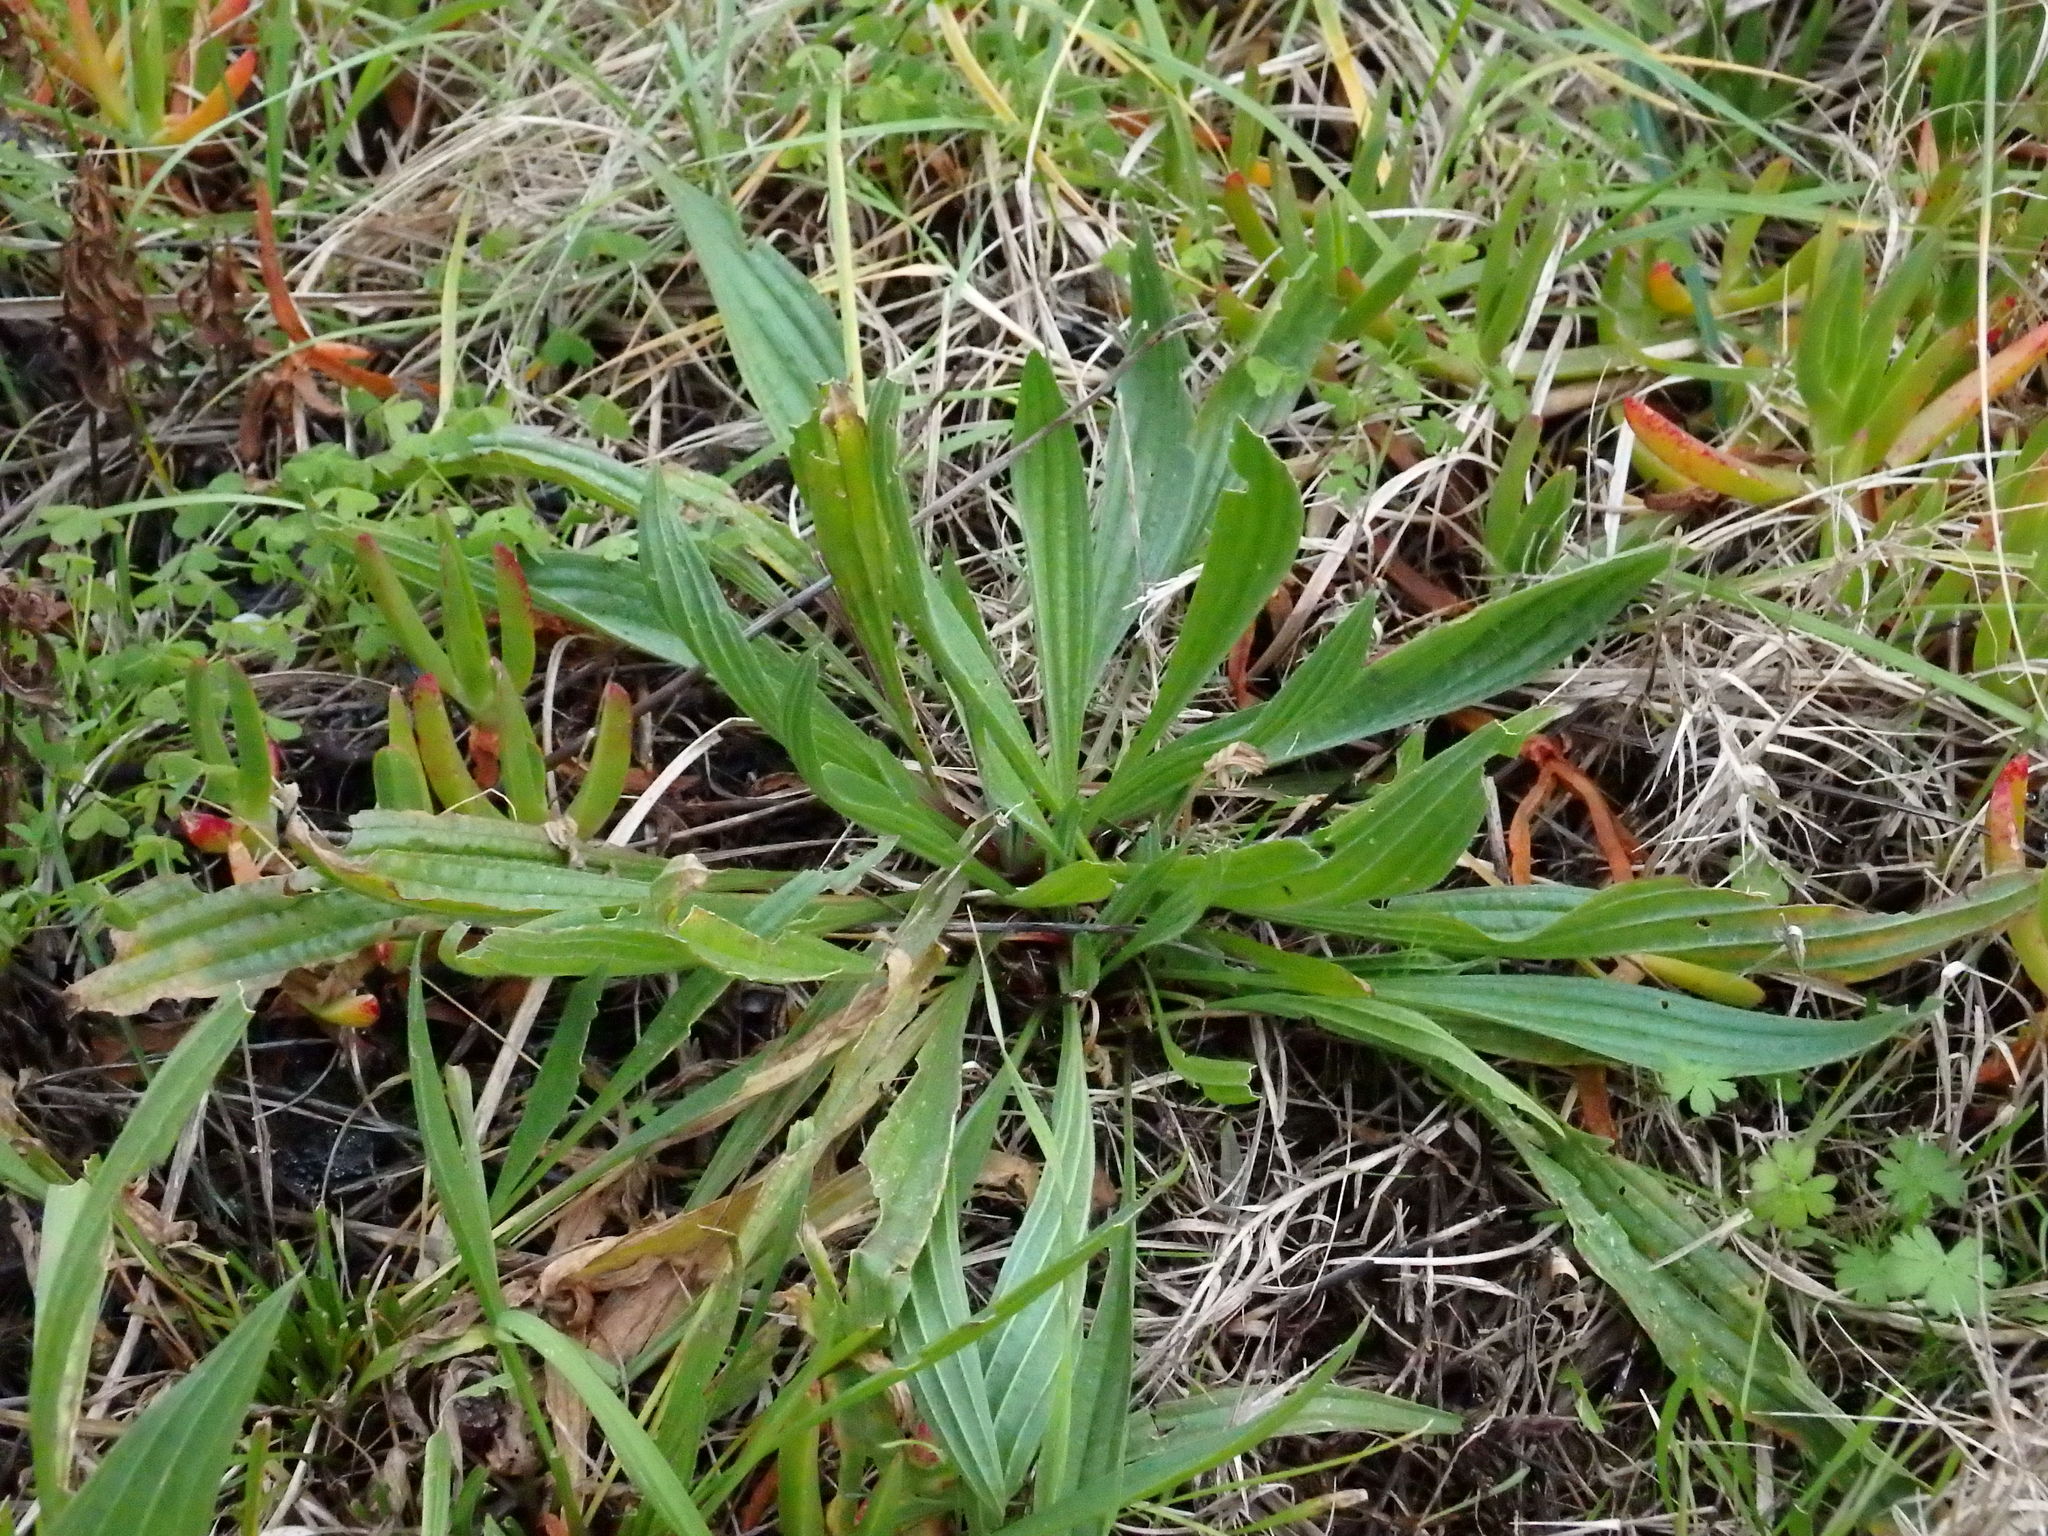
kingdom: Plantae
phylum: Tracheophyta
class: Magnoliopsida
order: Lamiales
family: Plantaginaceae
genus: Plantago
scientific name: Plantago lanceolata
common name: Ribwort plantain
